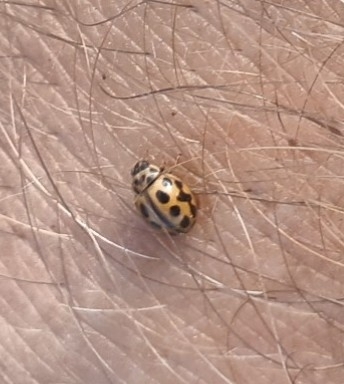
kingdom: Animalia
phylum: Arthropoda
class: Insecta
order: Coleoptera
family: Coccinellidae
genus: Tytthaspis
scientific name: Tytthaspis sedecimpunctata
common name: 16-spot ladybird
